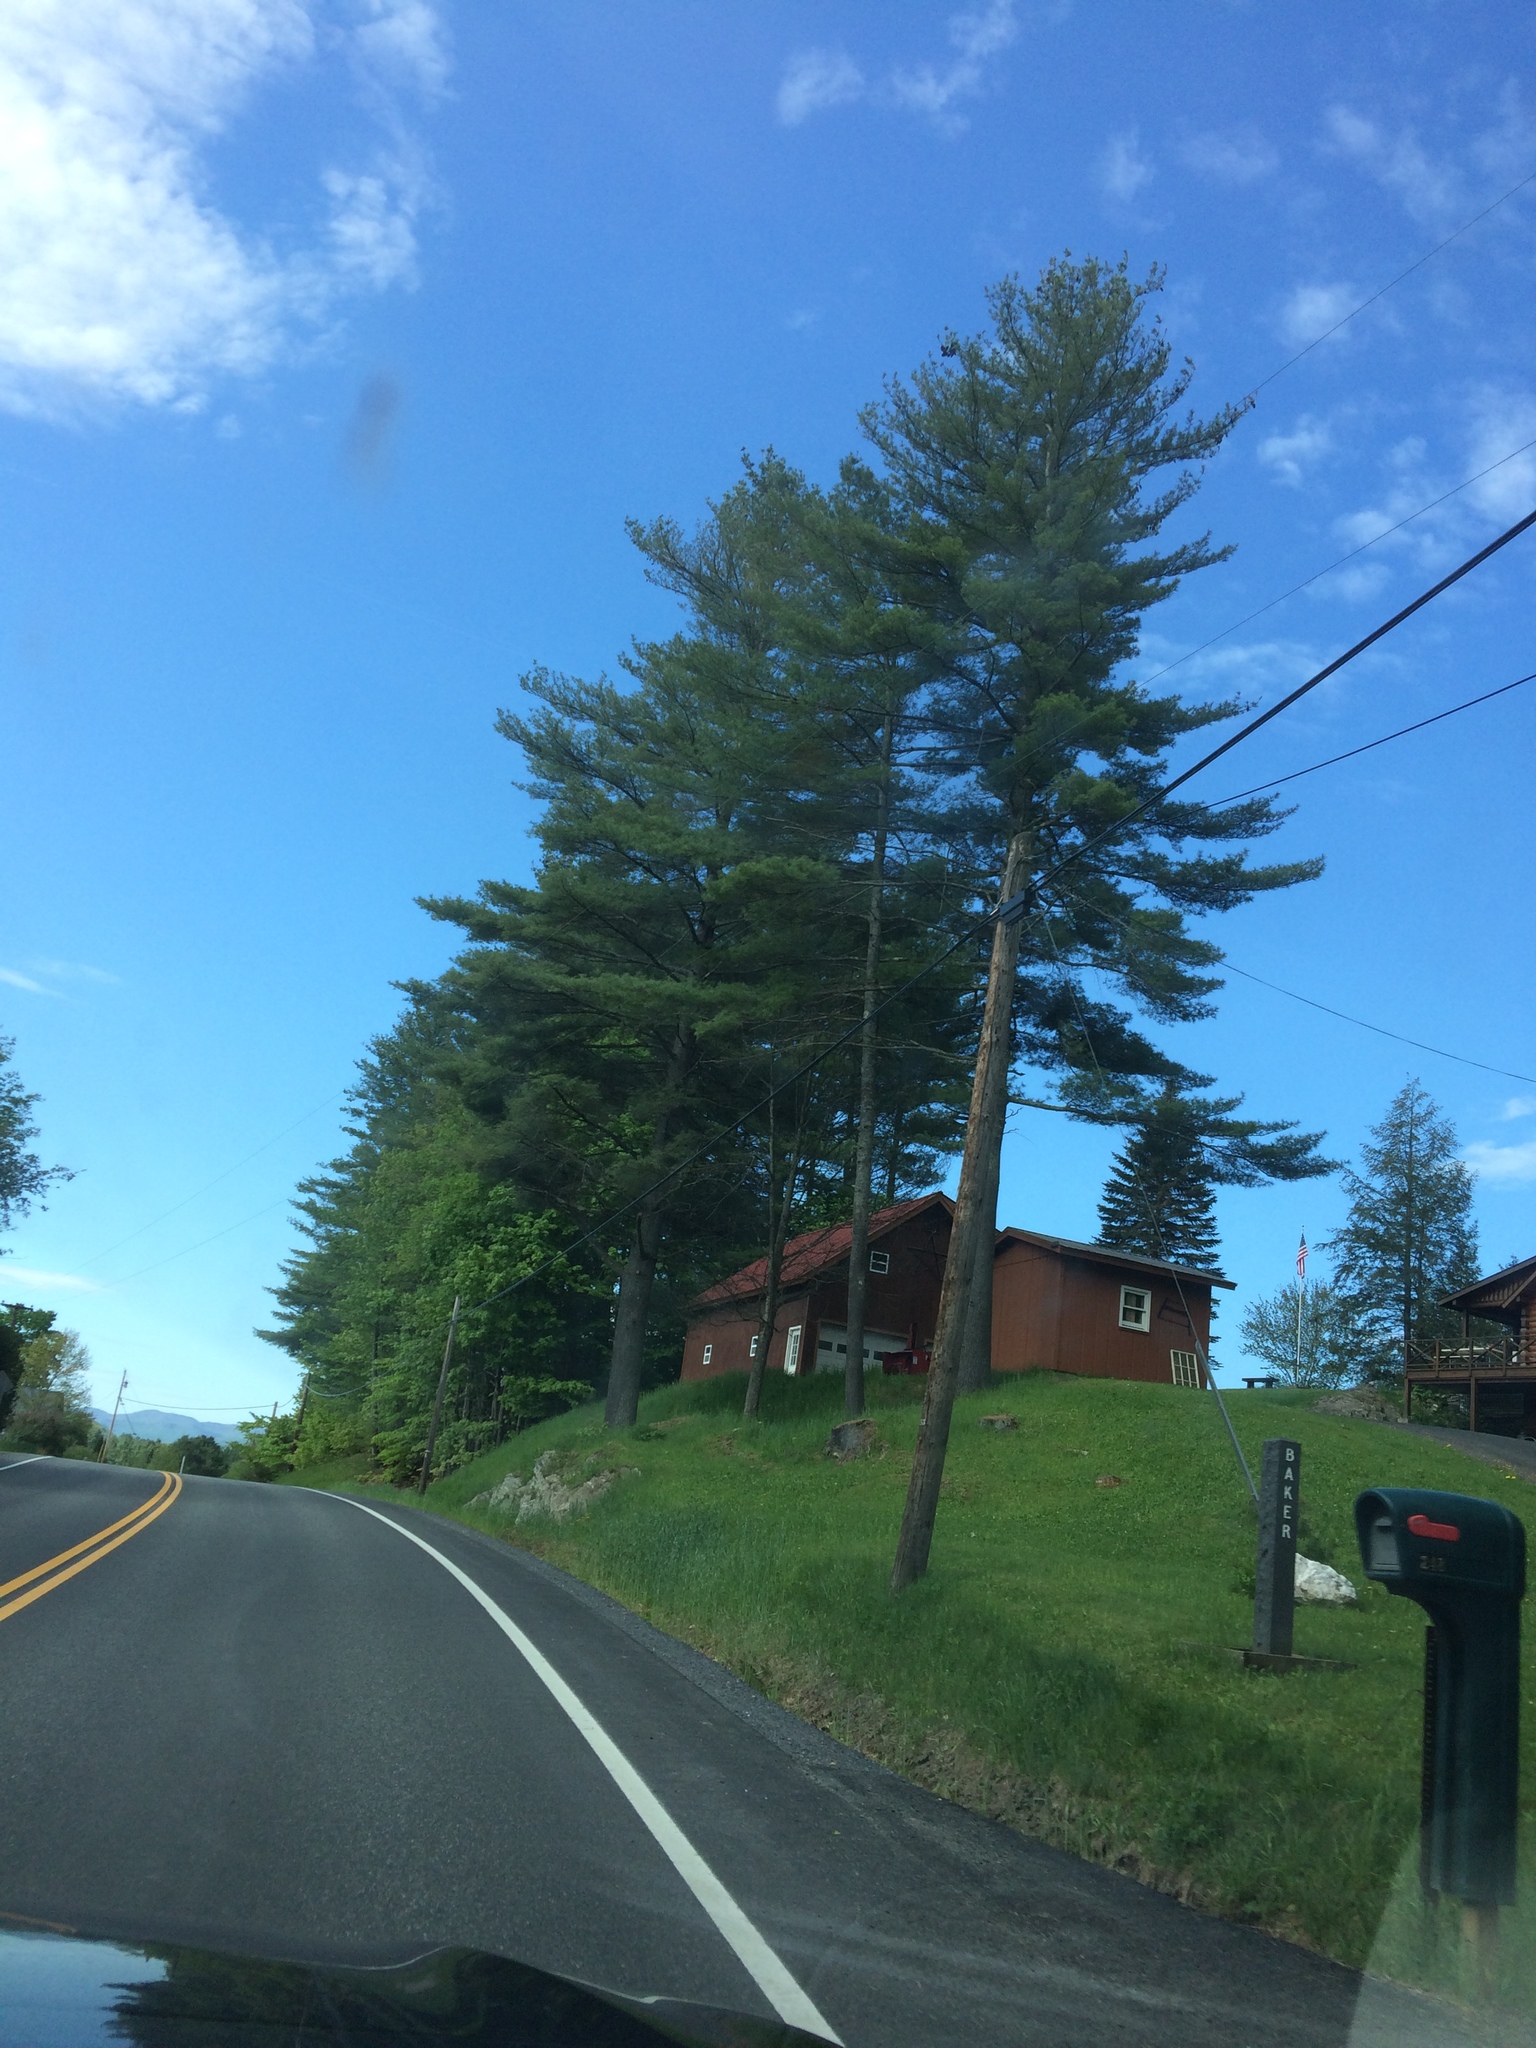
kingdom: Plantae
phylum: Tracheophyta
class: Pinopsida
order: Pinales
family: Pinaceae
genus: Pinus
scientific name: Pinus strobus
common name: Weymouth pine
